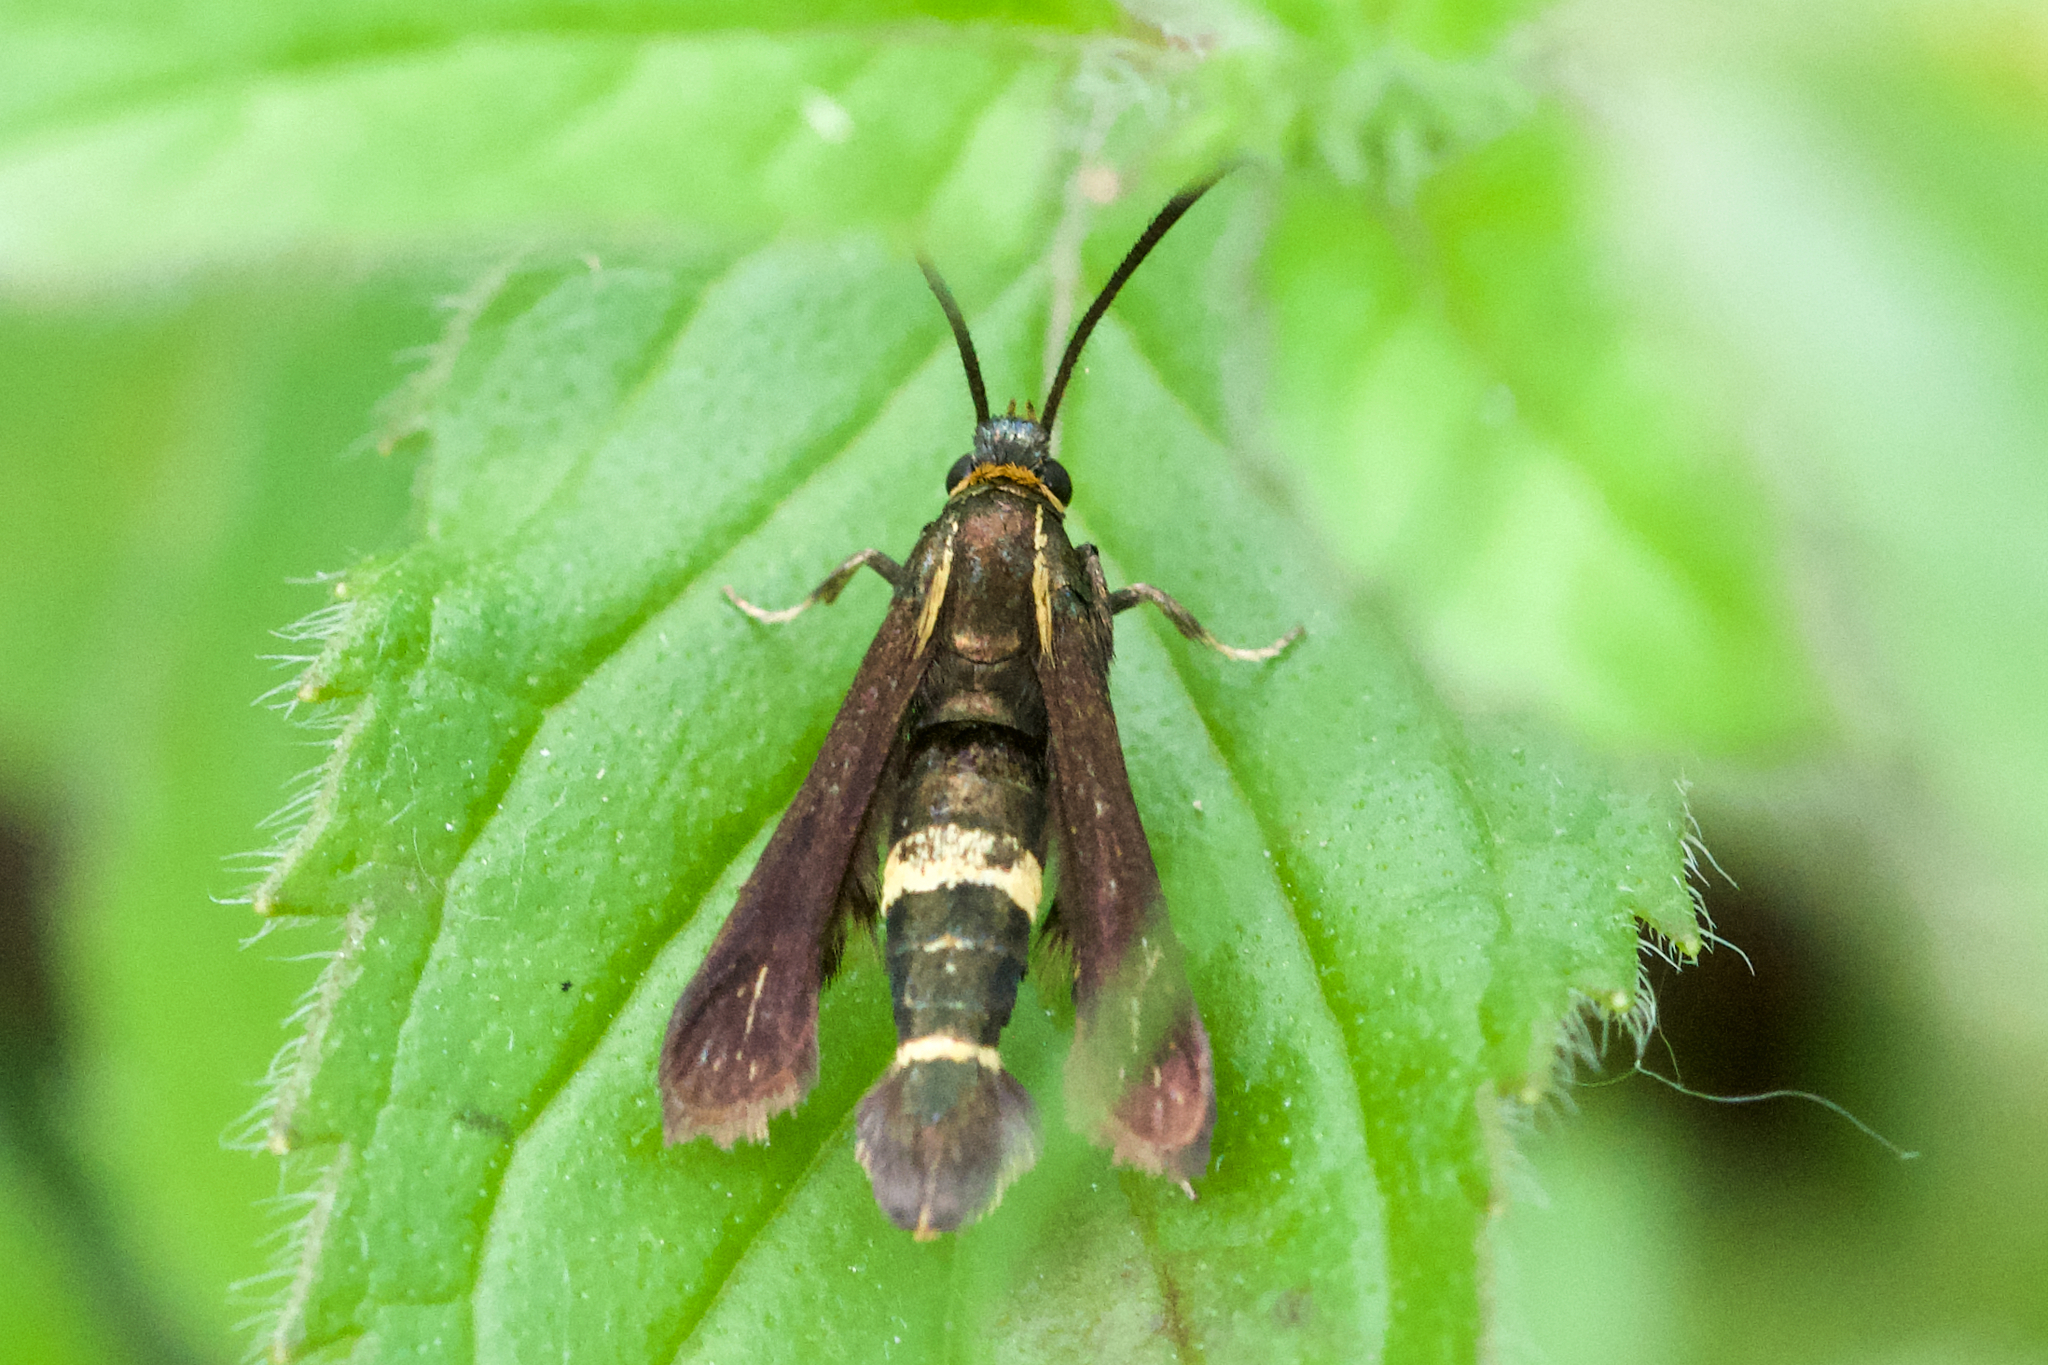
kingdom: Animalia
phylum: Arthropoda
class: Insecta
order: Lepidoptera
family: Sesiidae
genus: Carmenta
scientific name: Carmenta pyralidiformis
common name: Boneset borer moth
